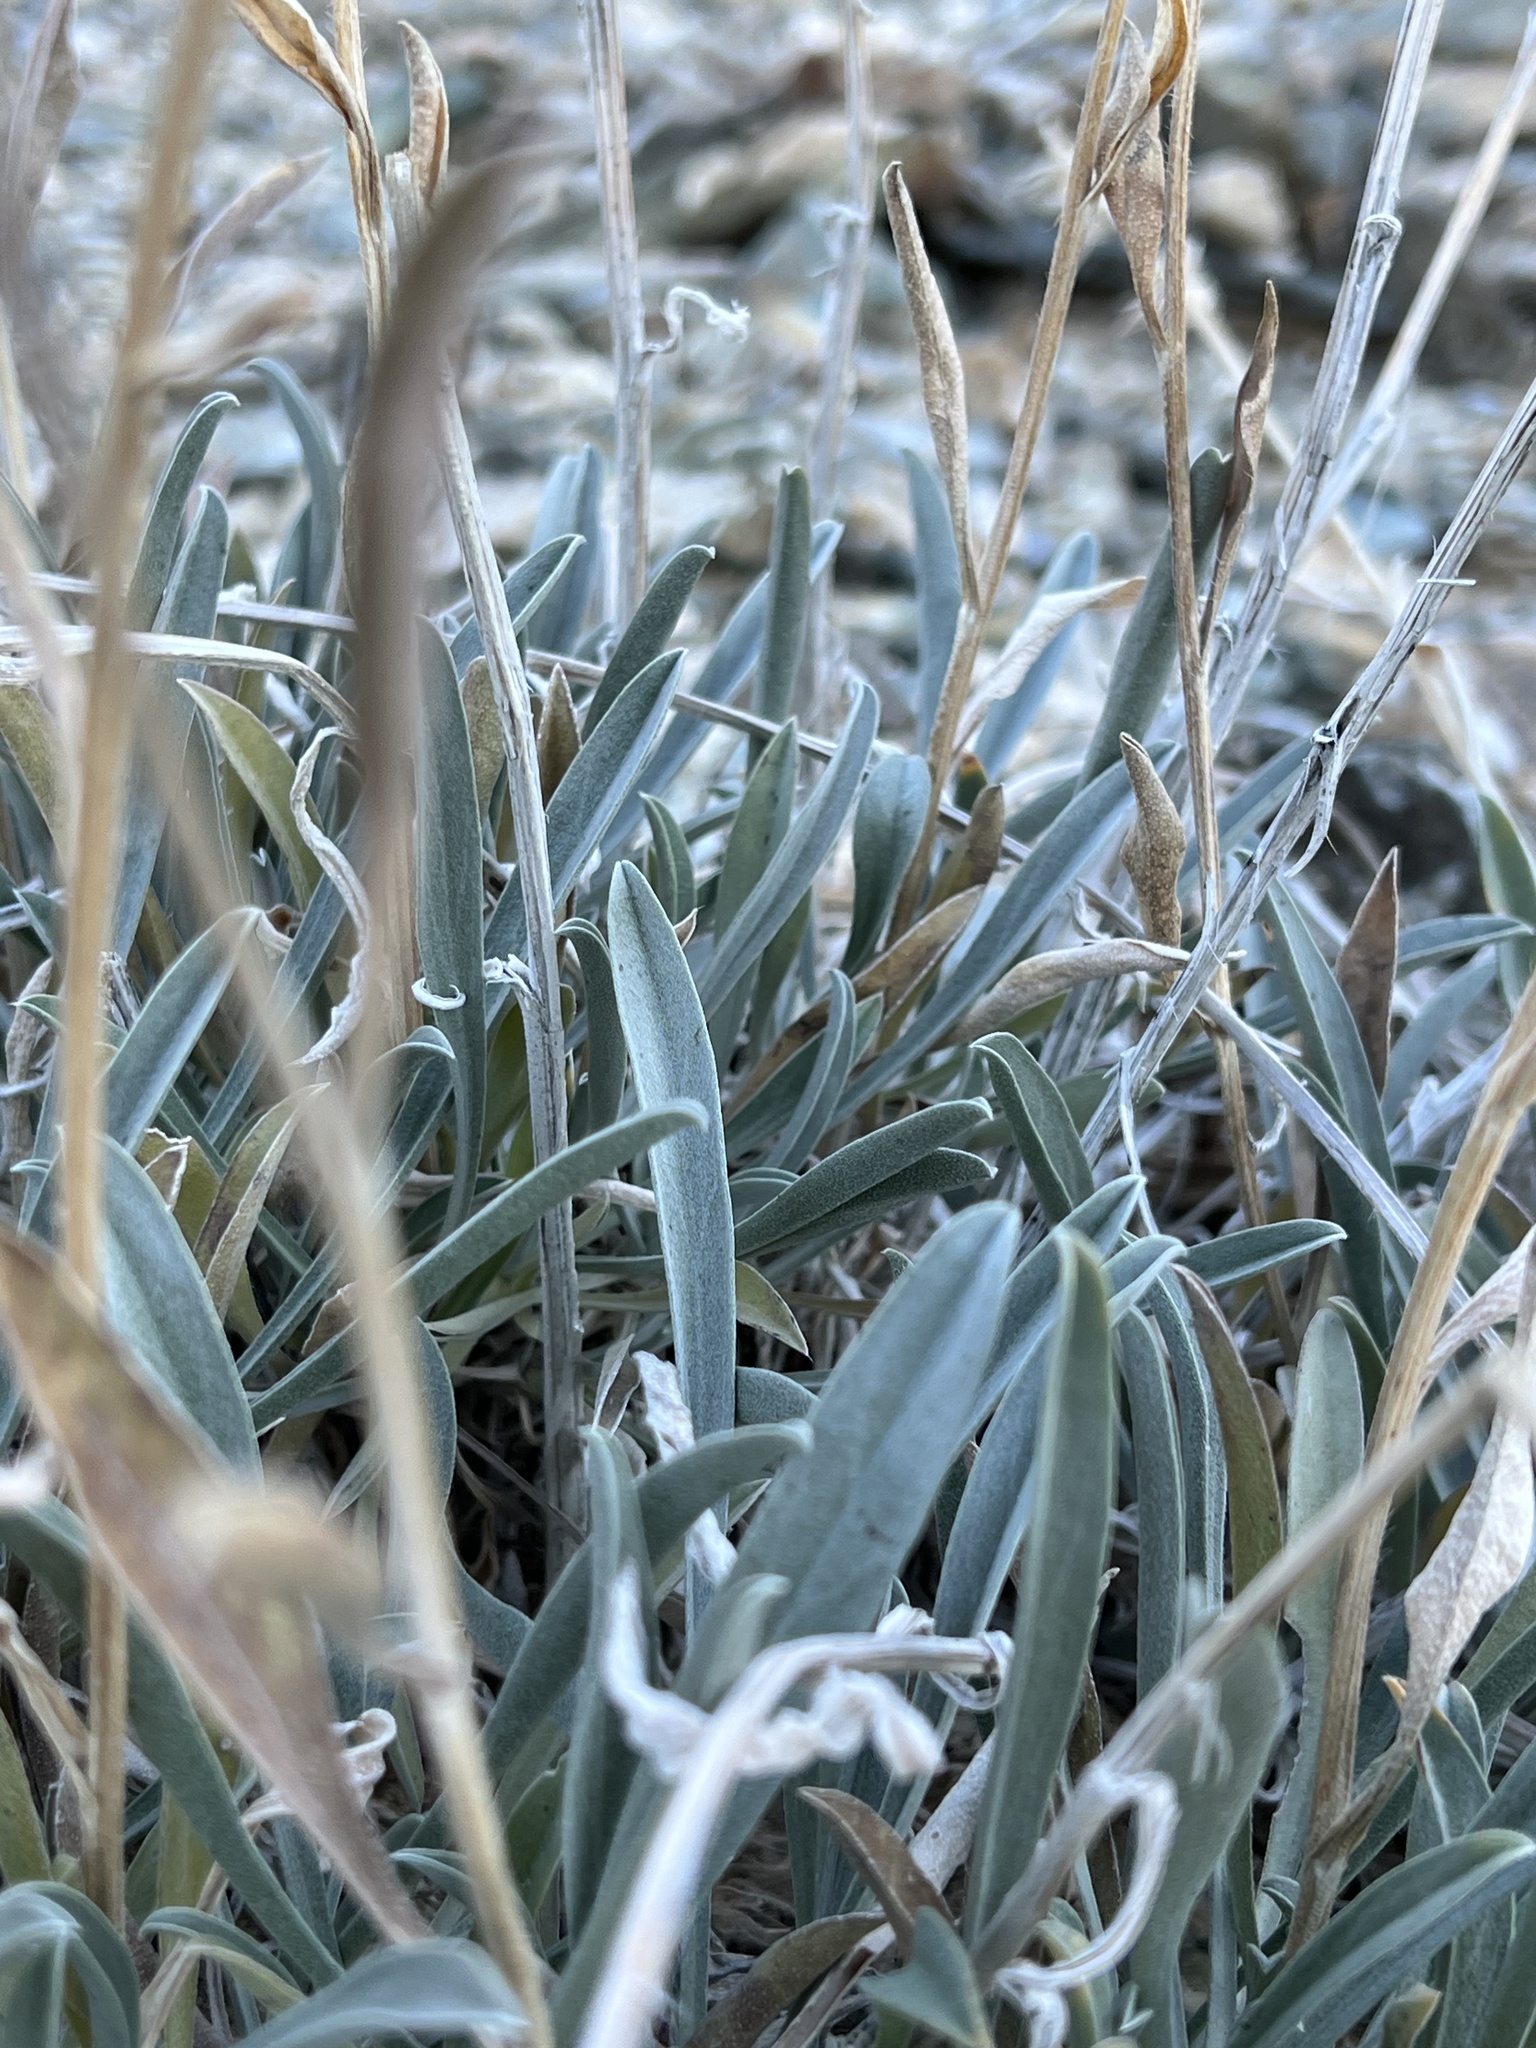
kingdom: Plantae
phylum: Tracheophyta
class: Magnoliopsida
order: Boraginales
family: Boraginaceae
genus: Oreocarya
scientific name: Oreocarya confertiflora
